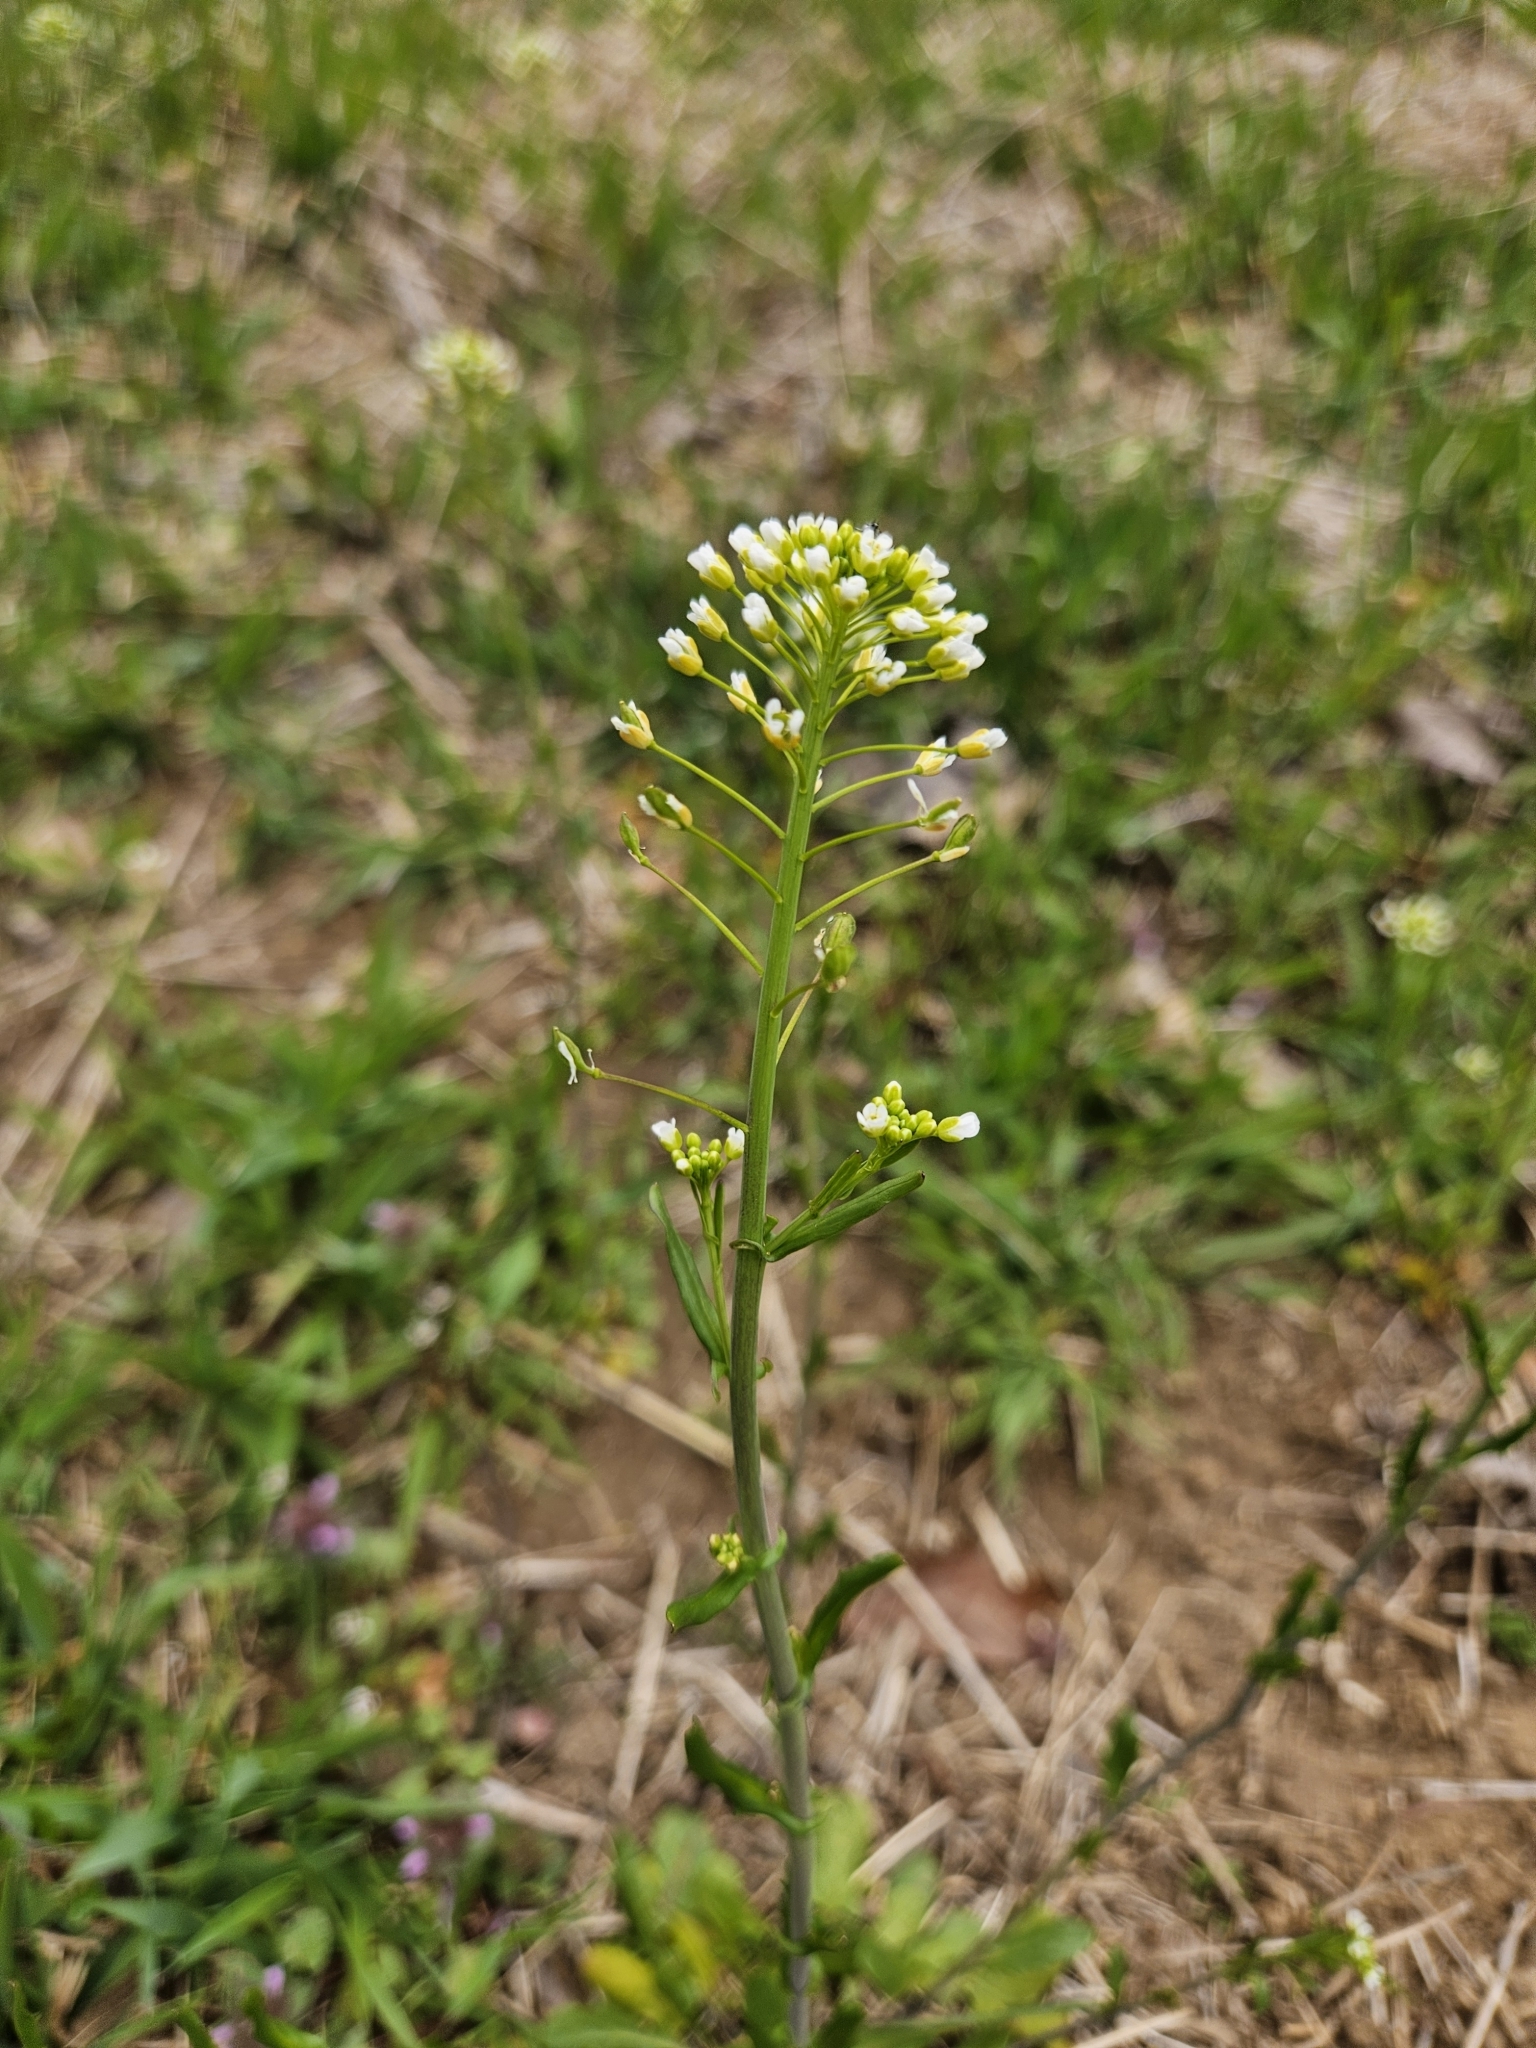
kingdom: Plantae
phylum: Tracheophyta
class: Magnoliopsida
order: Brassicales
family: Brassicaceae
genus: Mummenhoffia
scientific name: Mummenhoffia alliacea
